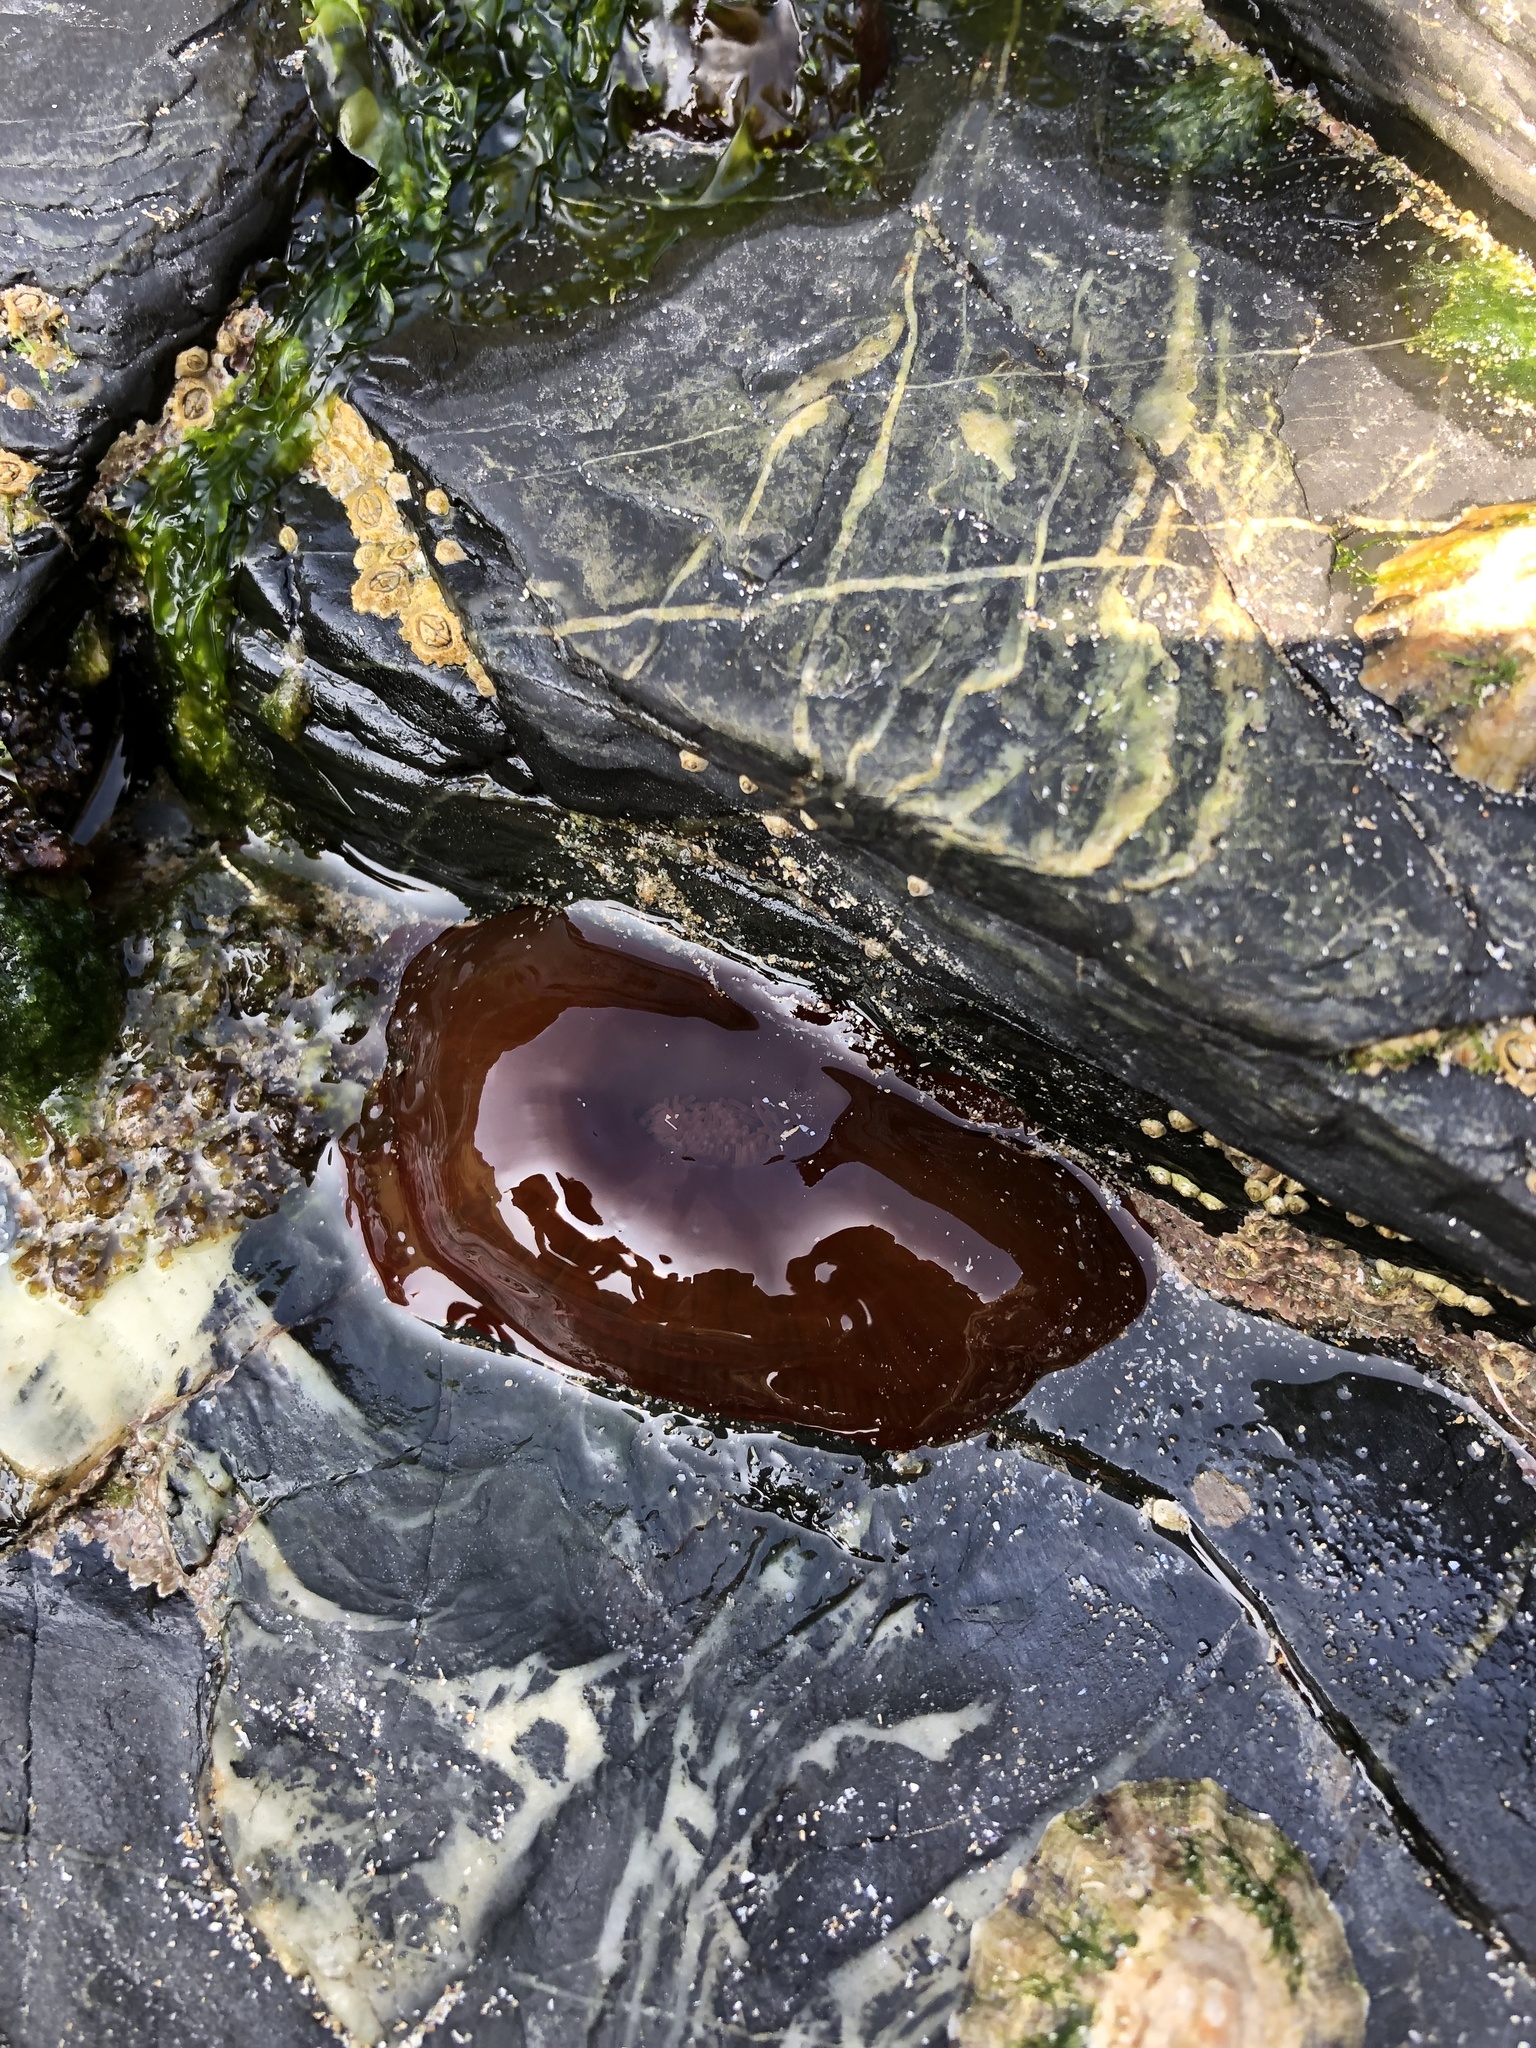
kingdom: Animalia
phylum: Cnidaria
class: Anthozoa
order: Actiniaria
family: Actiniidae
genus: Actinia
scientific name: Actinia equina
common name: Beadlet anemone
